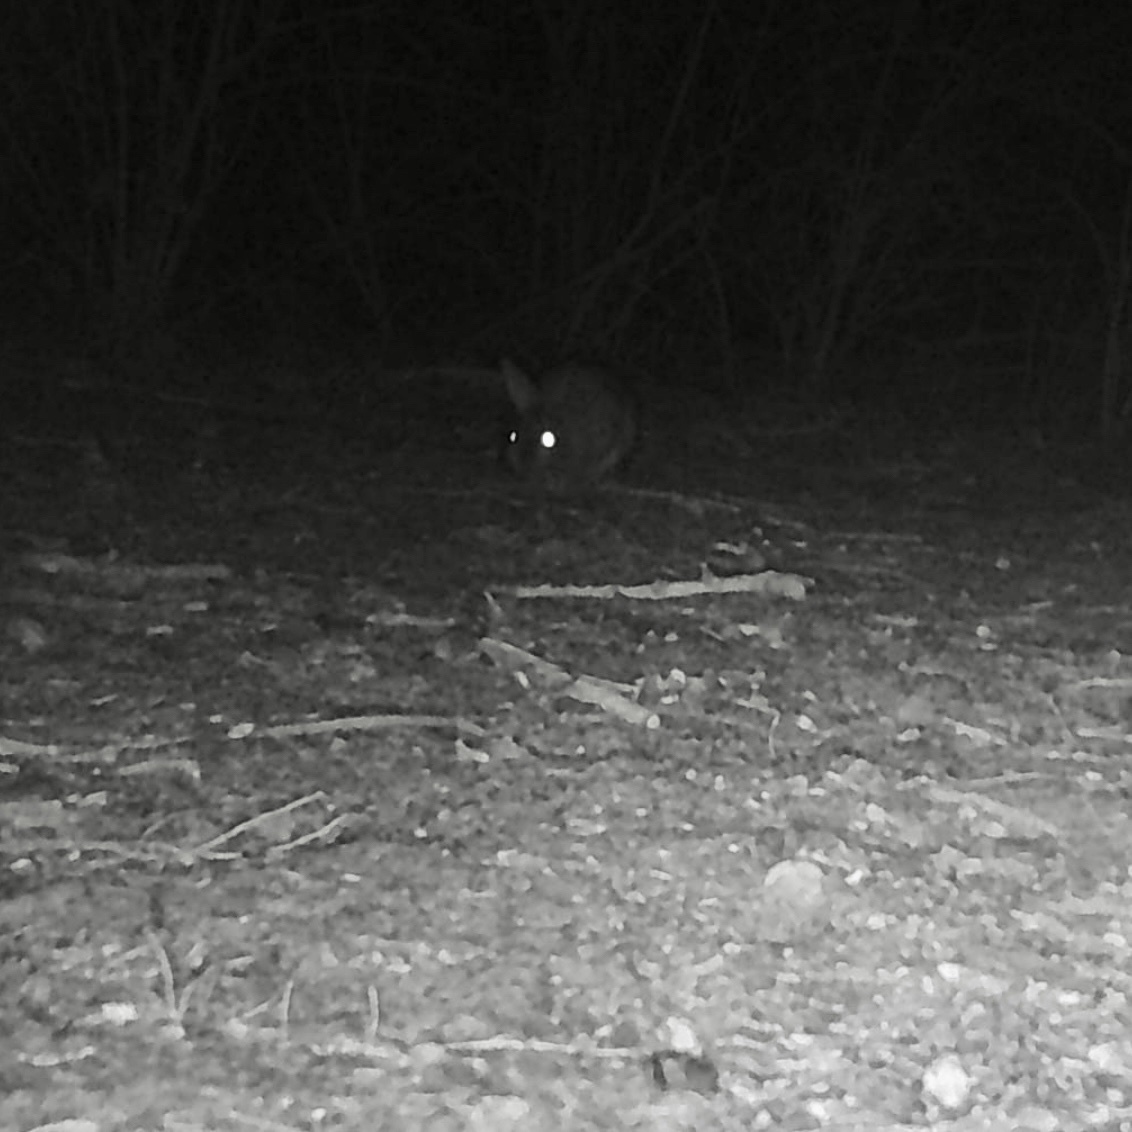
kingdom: Animalia
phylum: Chordata
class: Mammalia
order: Lagomorpha
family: Leporidae
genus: Oryctolagus
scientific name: Oryctolagus cuniculus
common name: European rabbit
